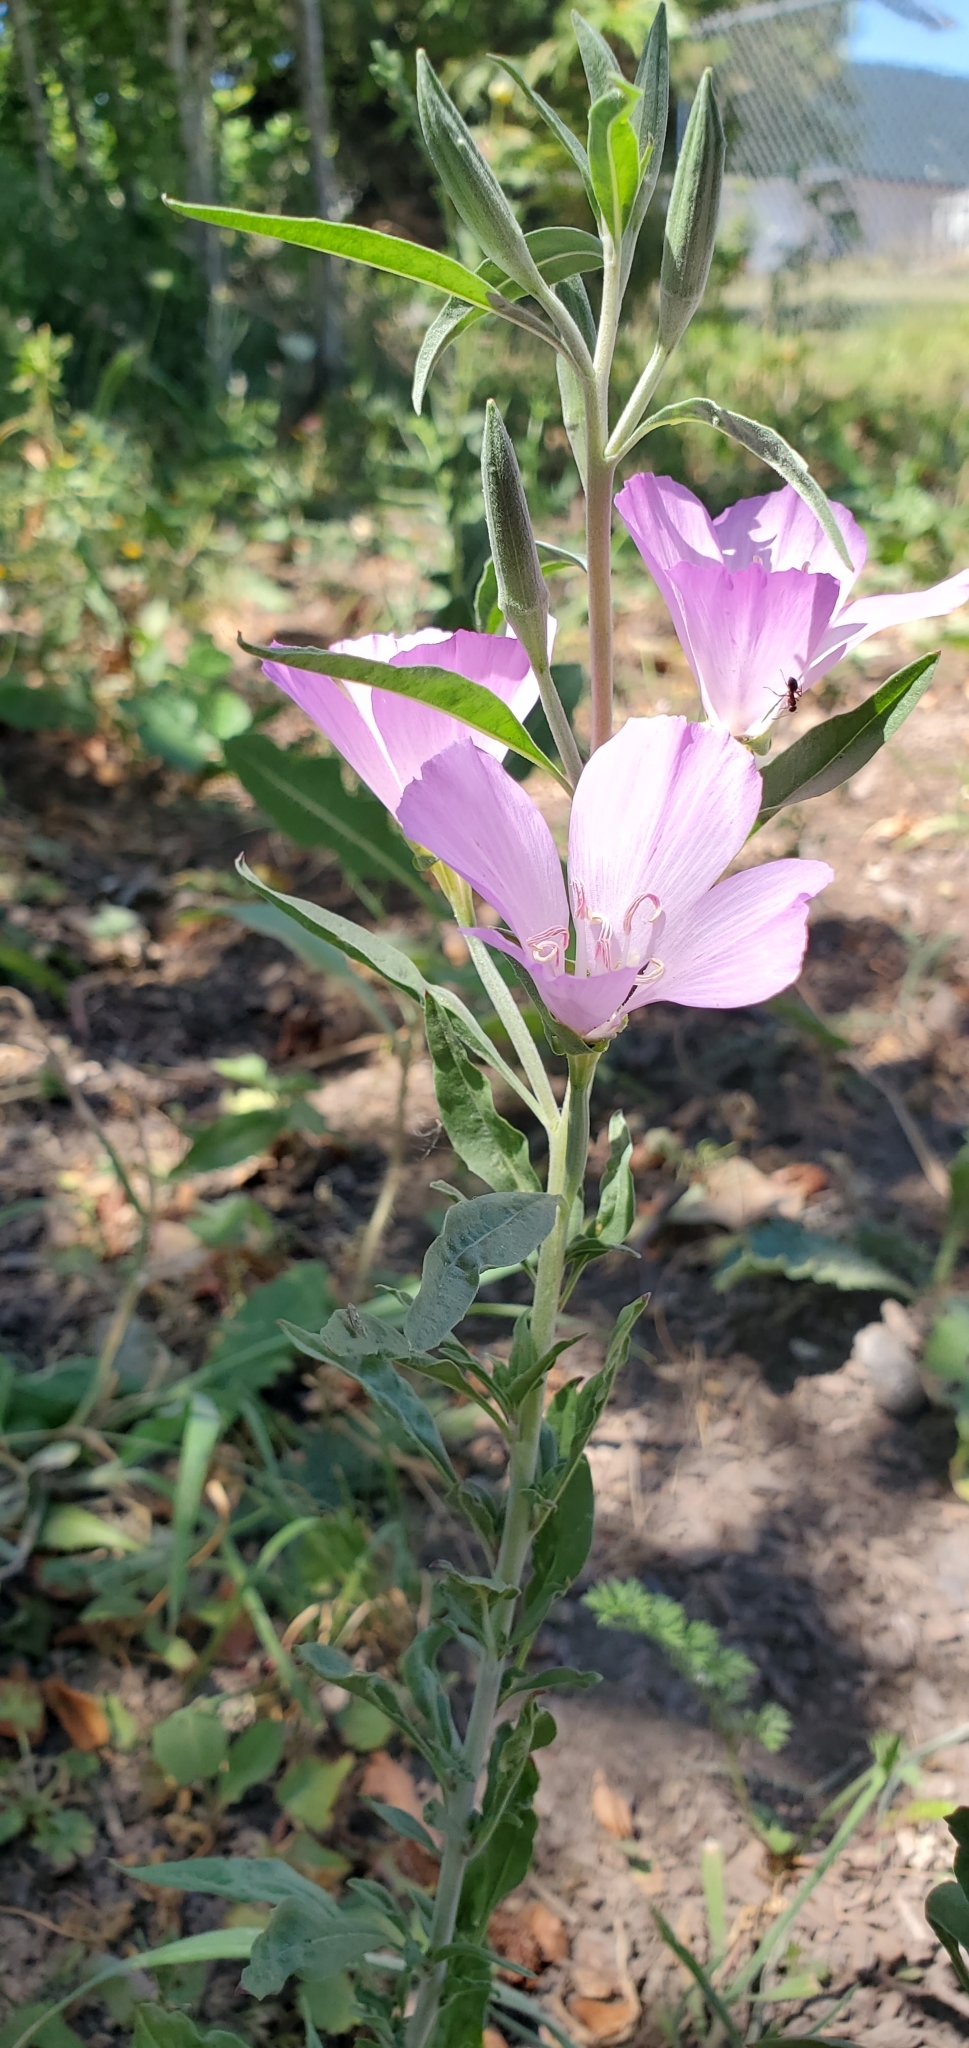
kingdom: Plantae
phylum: Tracheophyta
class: Magnoliopsida
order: Myrtales
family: Onagraceae
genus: Clarkia
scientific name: Clarkia amoena
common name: Godetia
